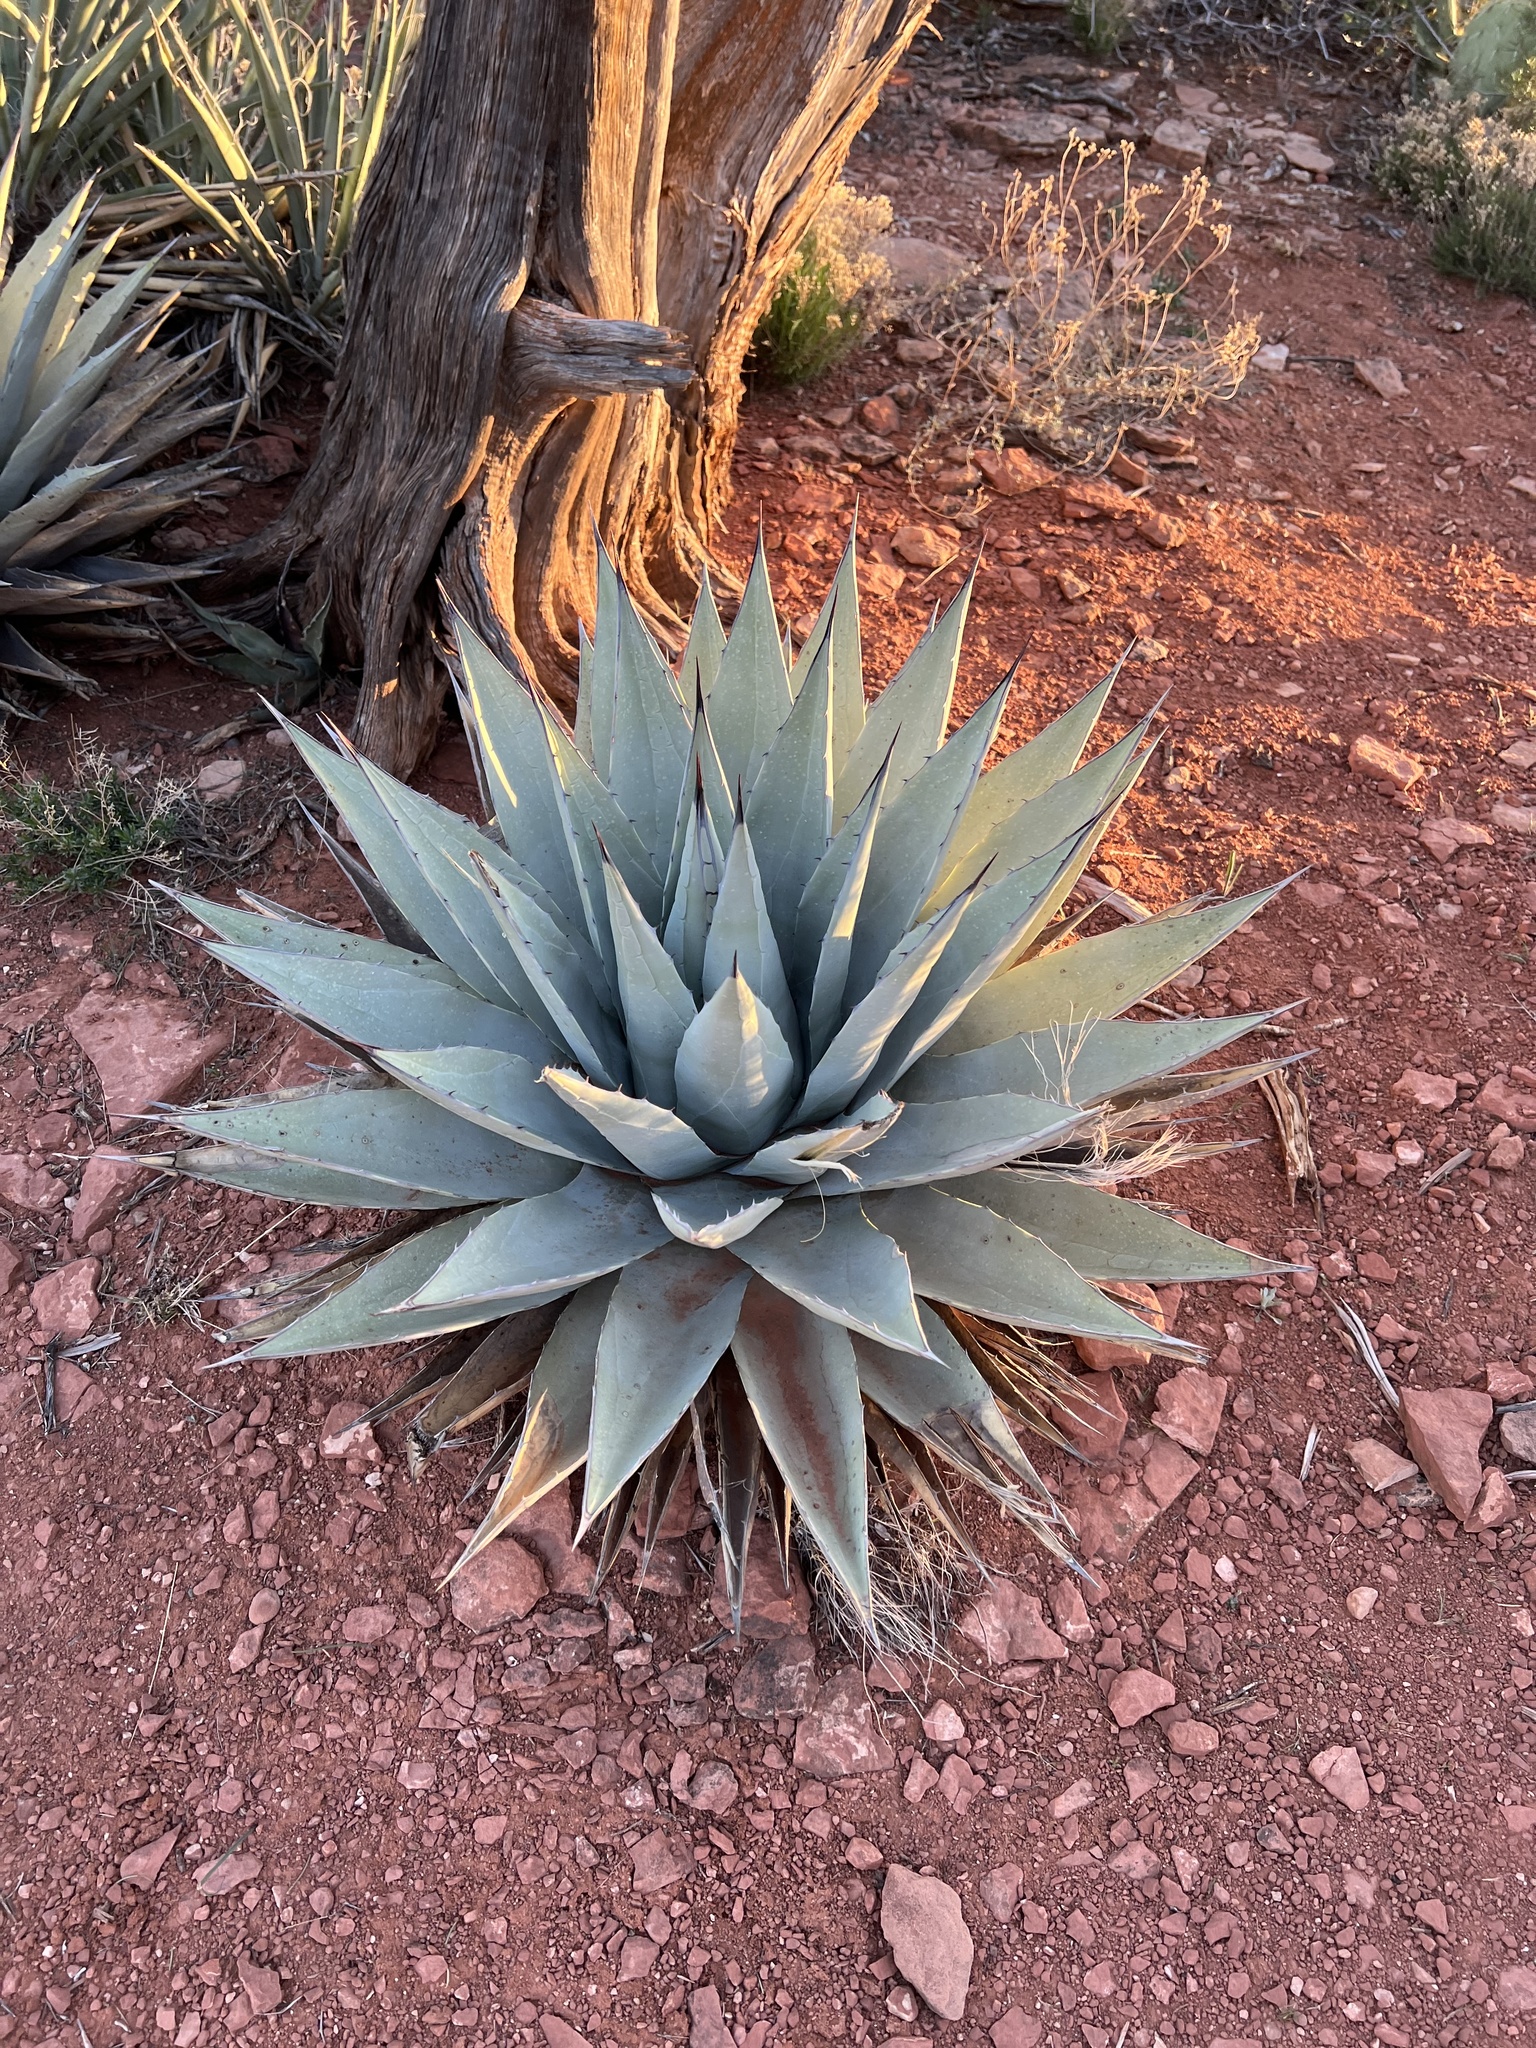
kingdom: Plantae
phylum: Tracheophyta
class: Liliopsida
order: Asparagales
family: Asparagaceae
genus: Agave
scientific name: Agave parryi
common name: Parry's agave
